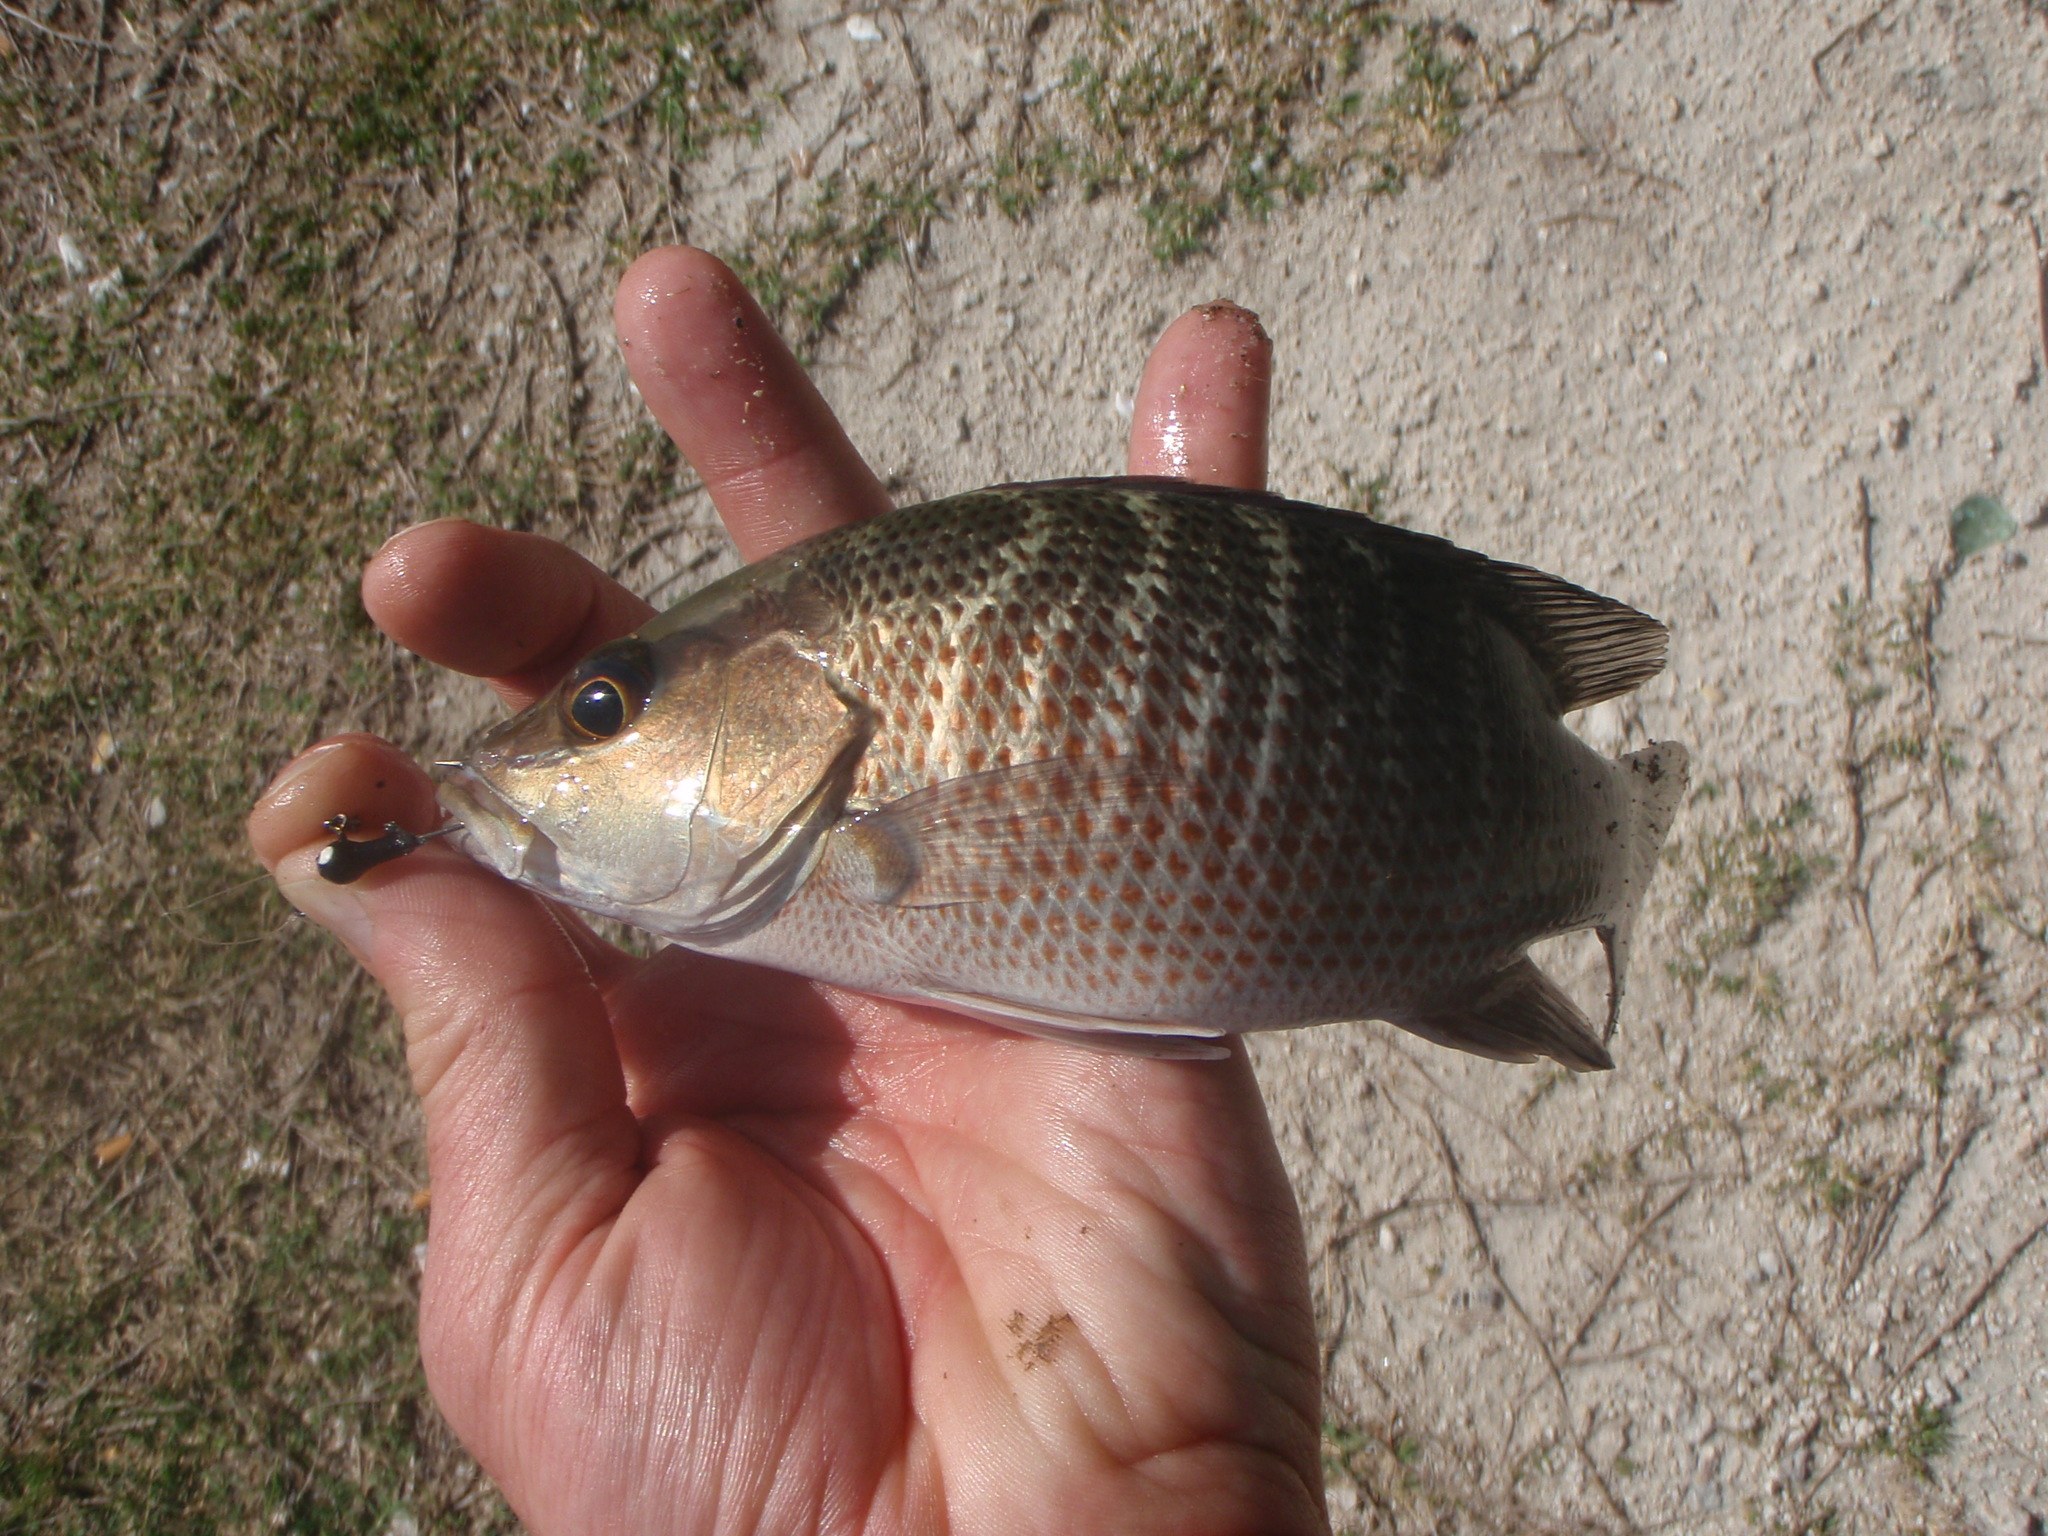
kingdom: Animalia
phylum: Chordata
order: Perciformes
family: Lutjanidae
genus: Lutjanus
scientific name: Lutjanus griseus
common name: Gray snapper
